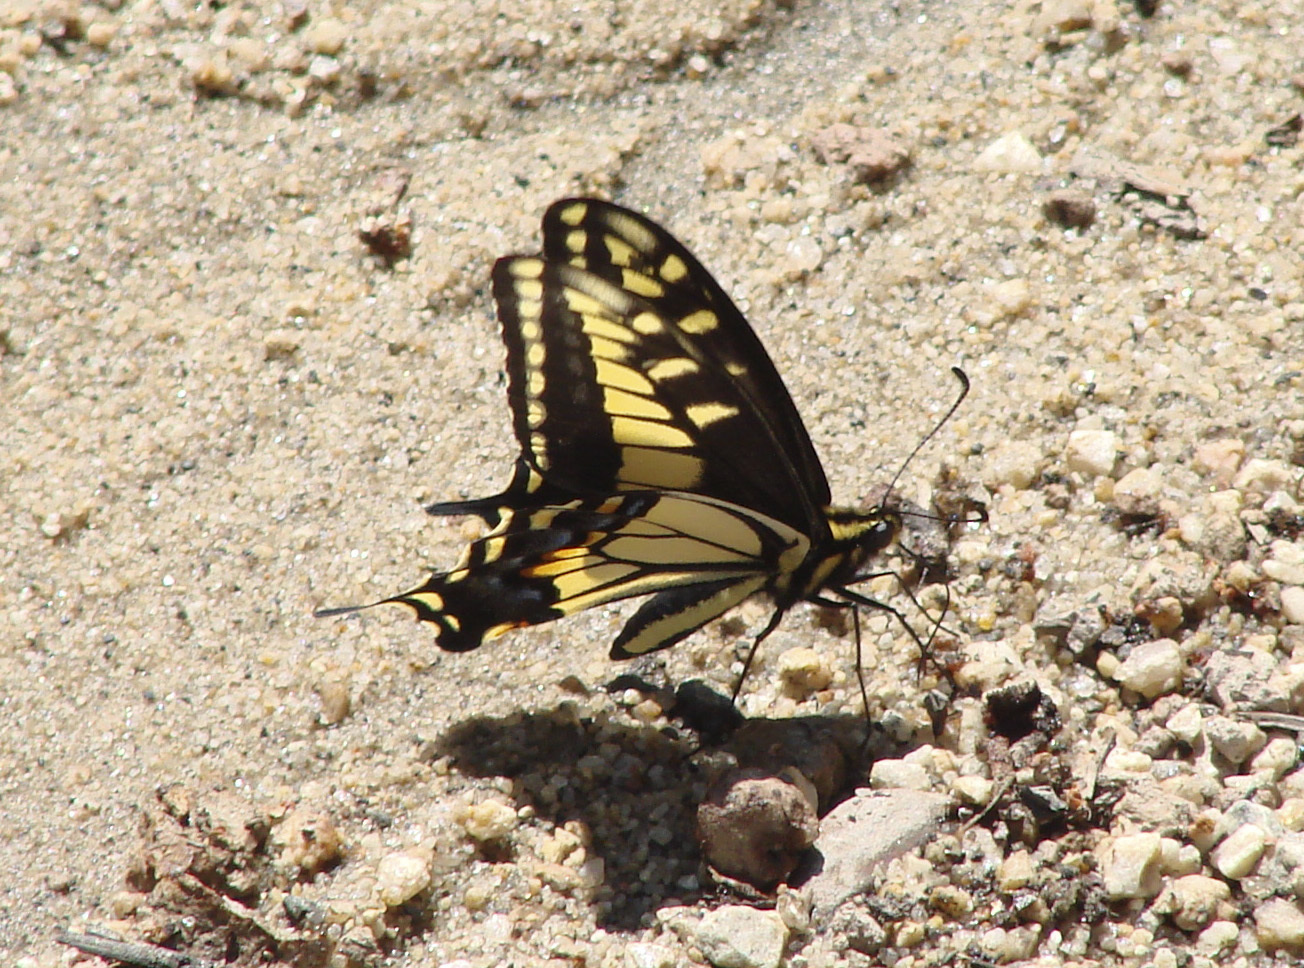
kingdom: Animalia
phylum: Arthropoda
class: Insecta
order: Lepidoptera
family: Papilionidae
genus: Papilio
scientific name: Papilio zelicaon
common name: Anise swallowtail
